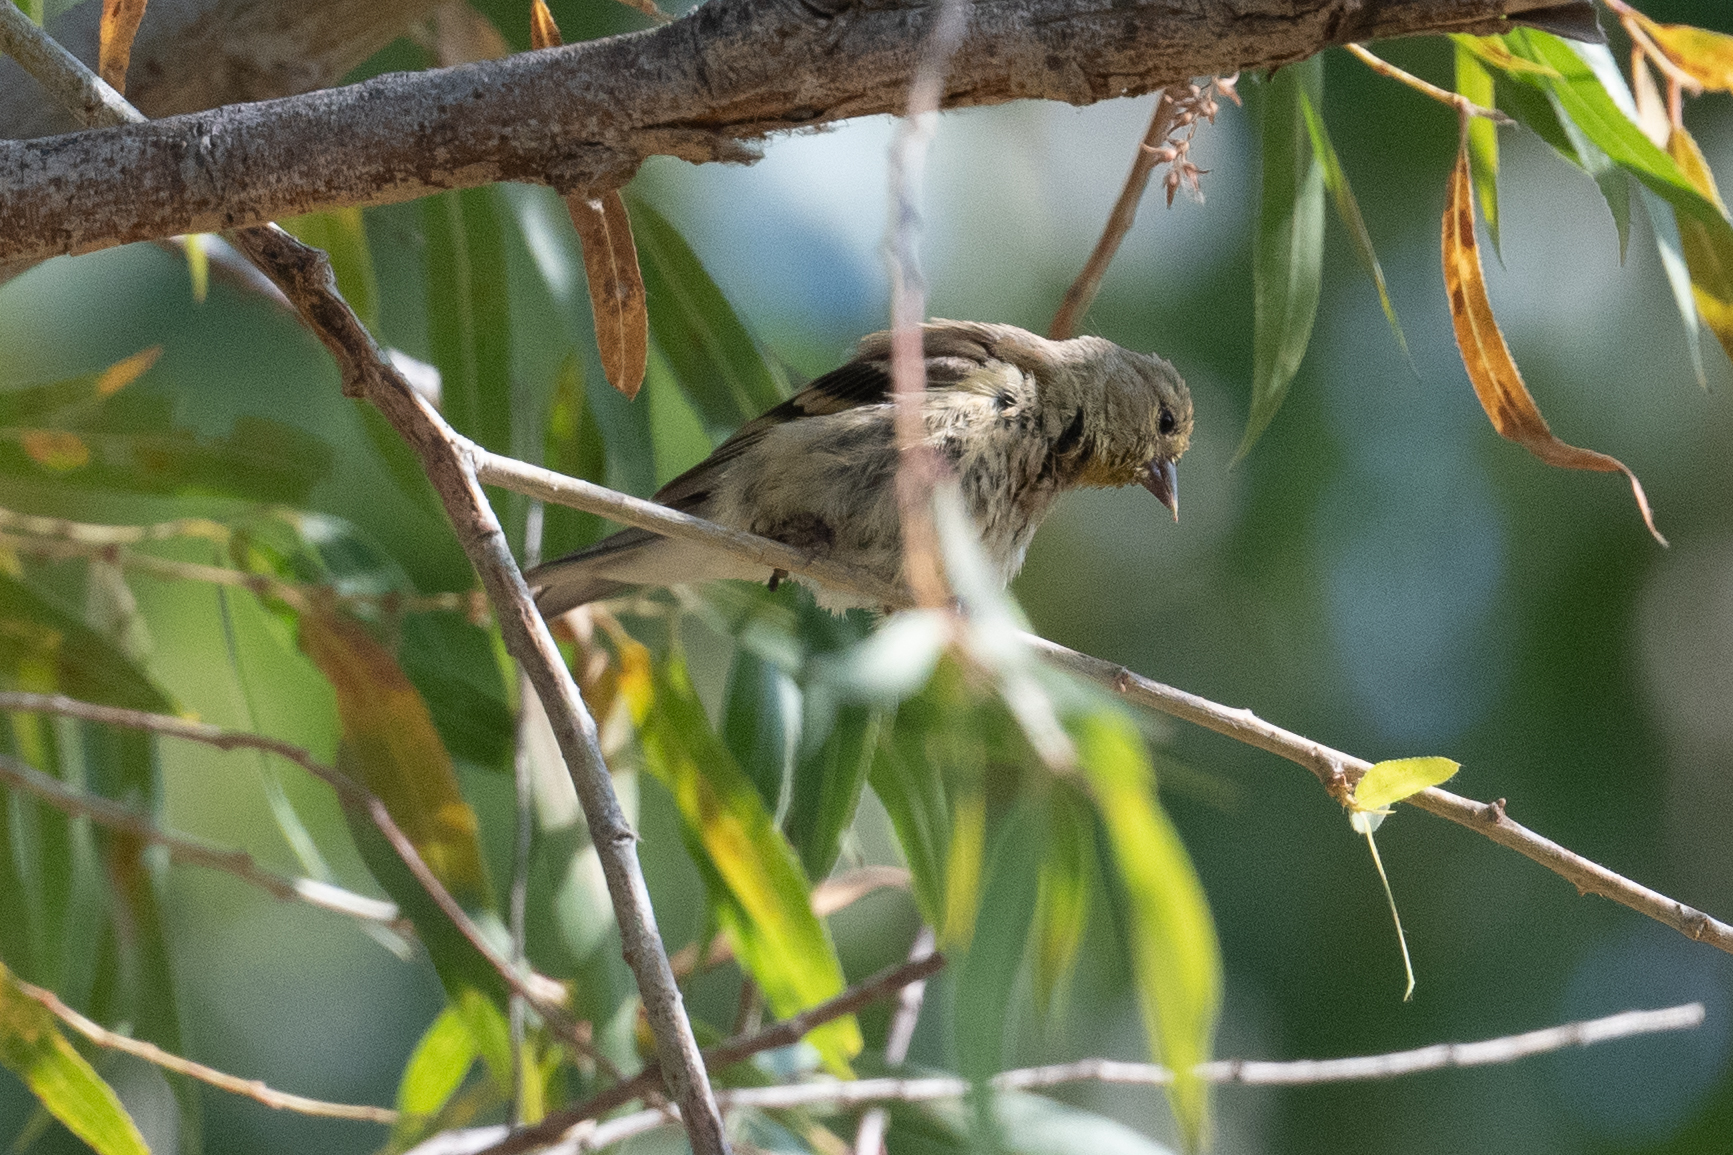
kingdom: Animalia
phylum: Chordata
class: Aves
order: Passeriformes
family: Fringillidae
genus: Spinus
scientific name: Spinus tristis
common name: American goldfinch
